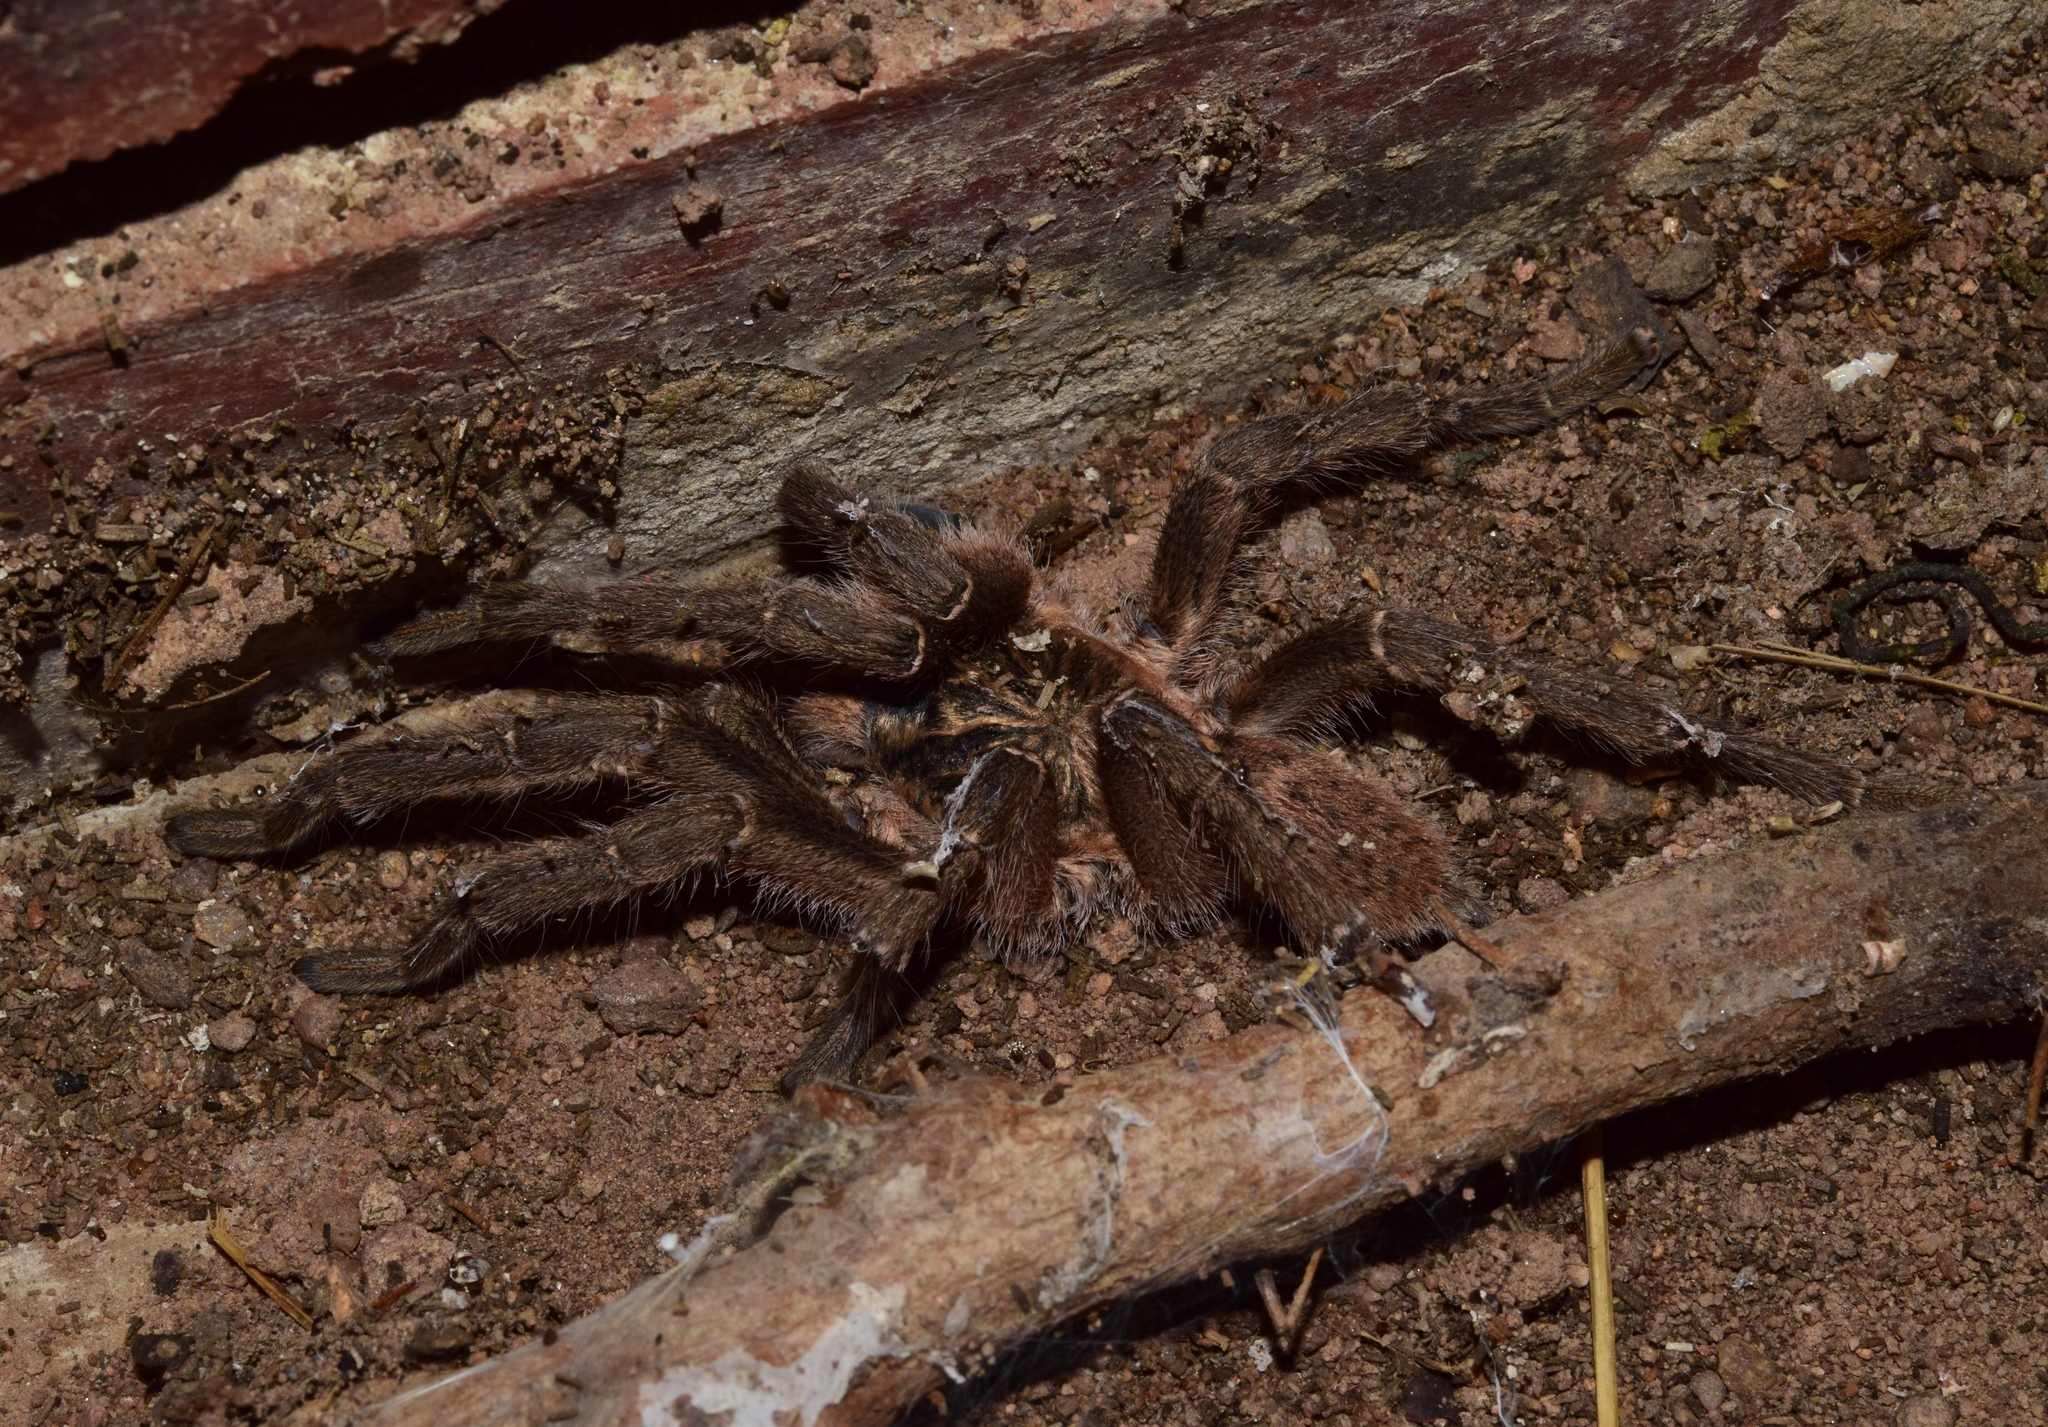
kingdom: Animalia
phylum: Arthropoda
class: Arachnida
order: Araneae
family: Theraphosidae
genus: Harpactira
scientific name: Harpactira curator
